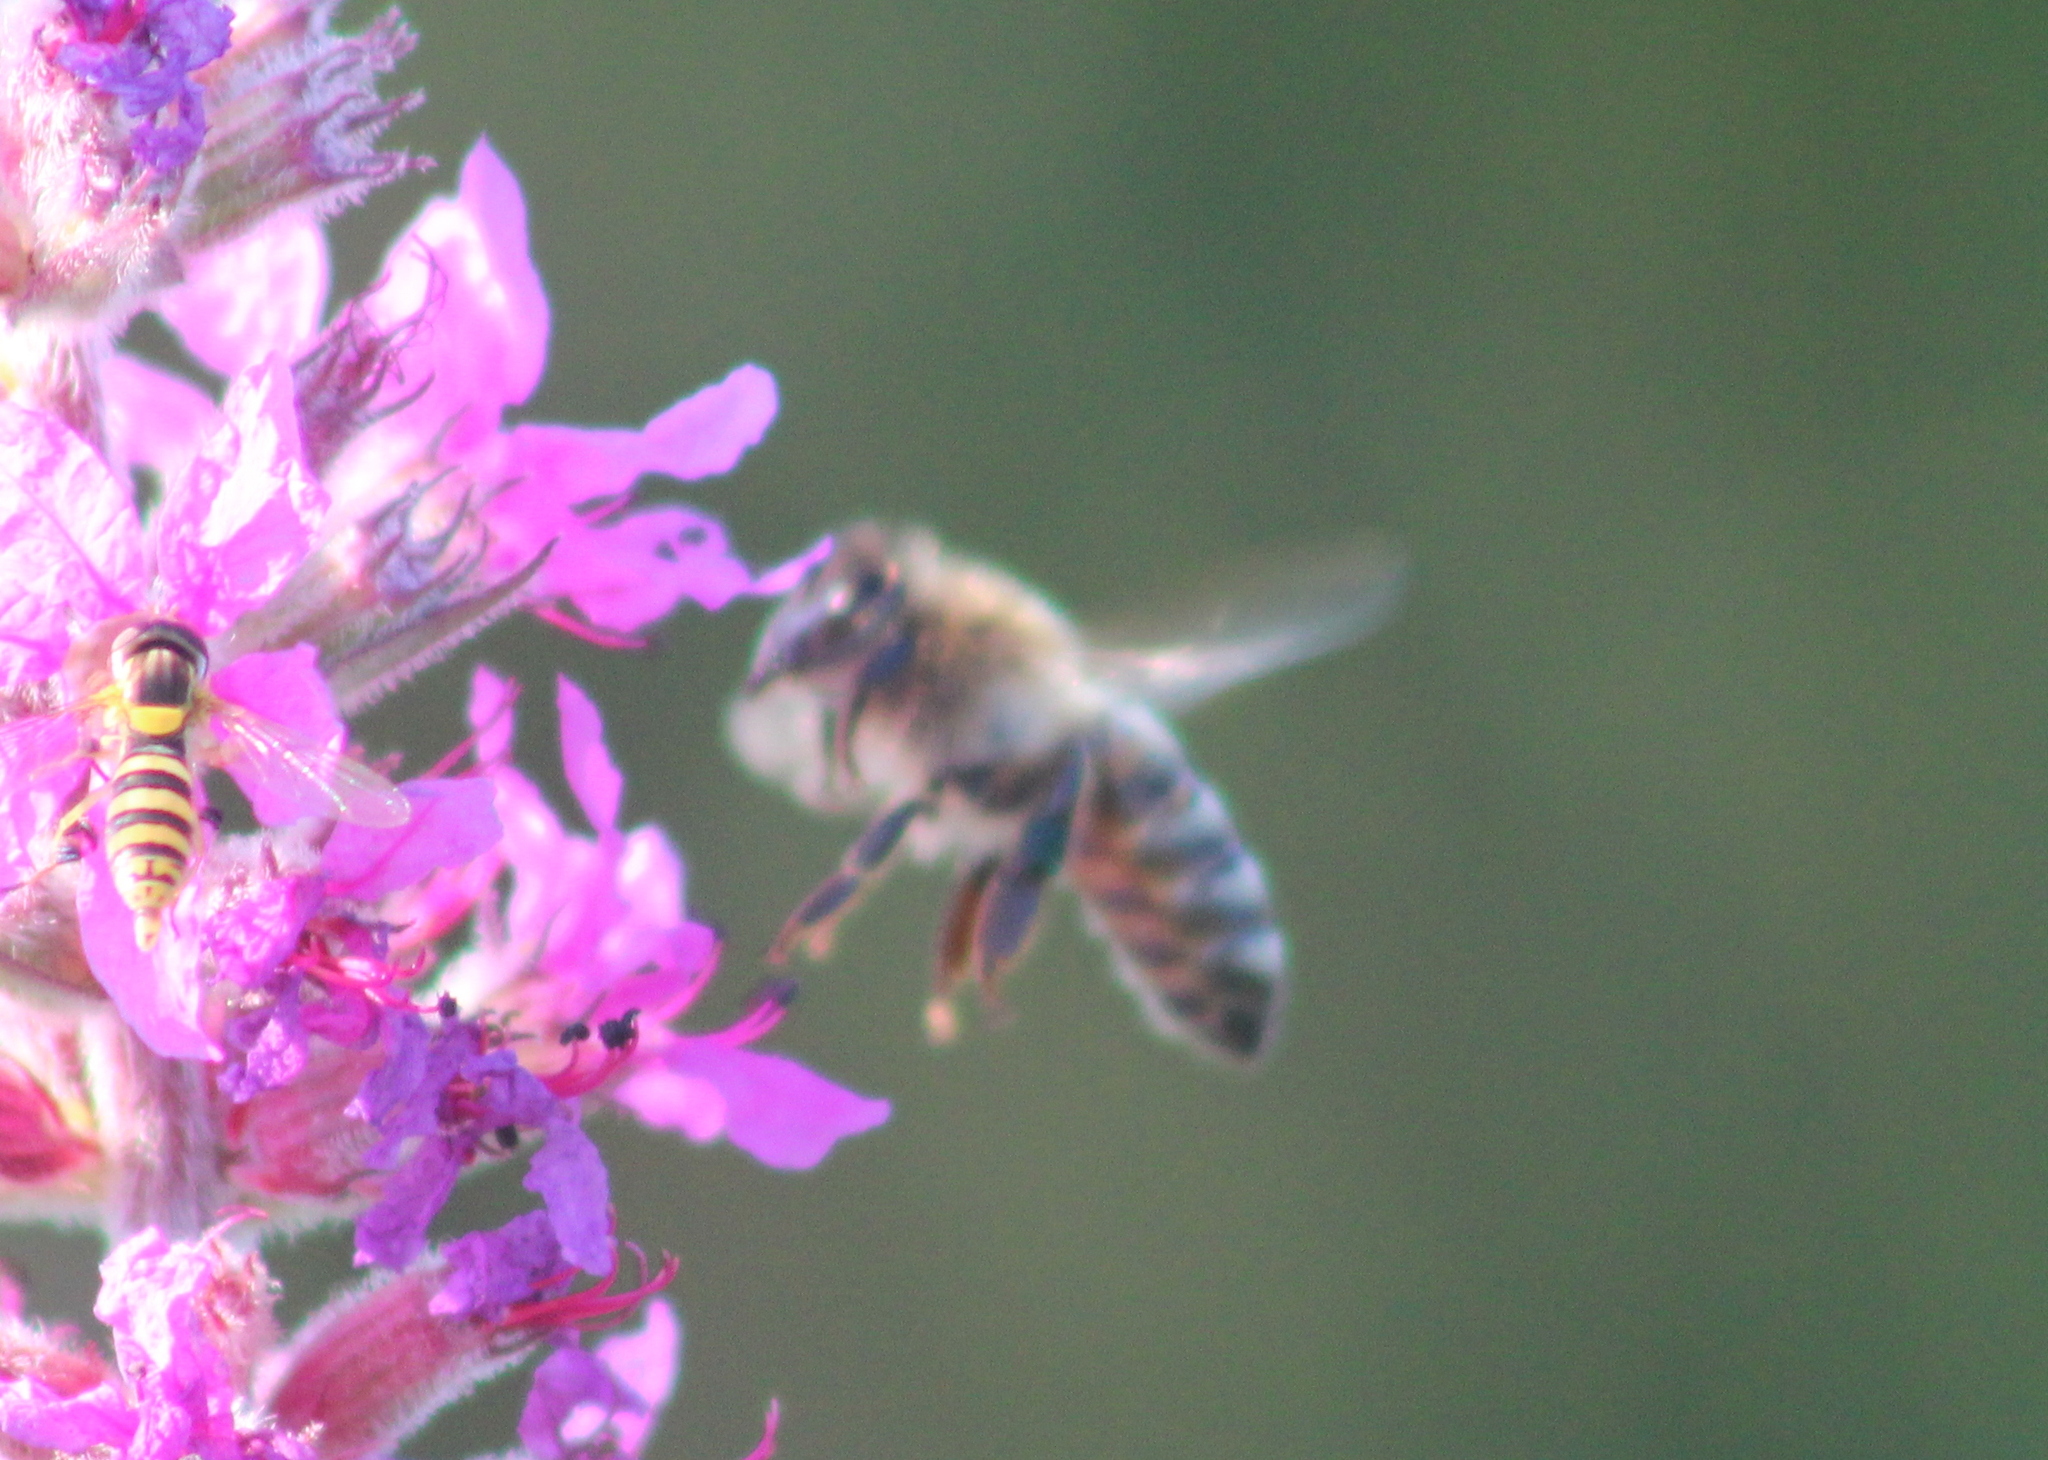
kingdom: Animalia
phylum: Arthropoda
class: Insecta
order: Hymenoptera
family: Apidae
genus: Apis
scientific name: Apis mellifera
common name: Honey bee
